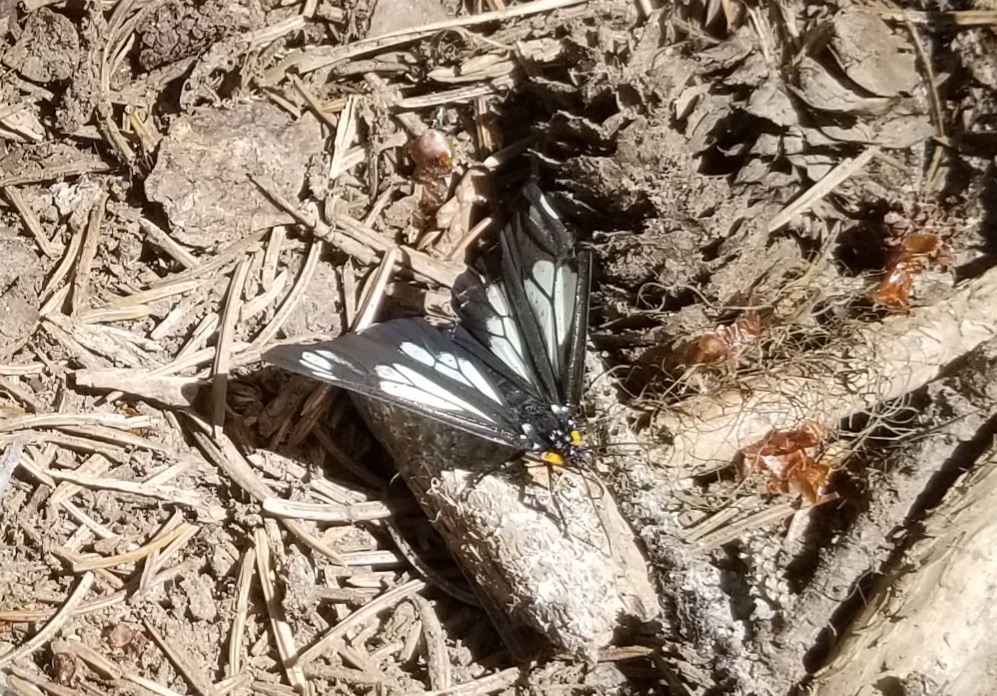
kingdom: Animalia
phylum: Arthropoda
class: Insecta
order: Lepidoptera
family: Erebidae
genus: Gnophaela
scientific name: Gnophaela vermiculata
